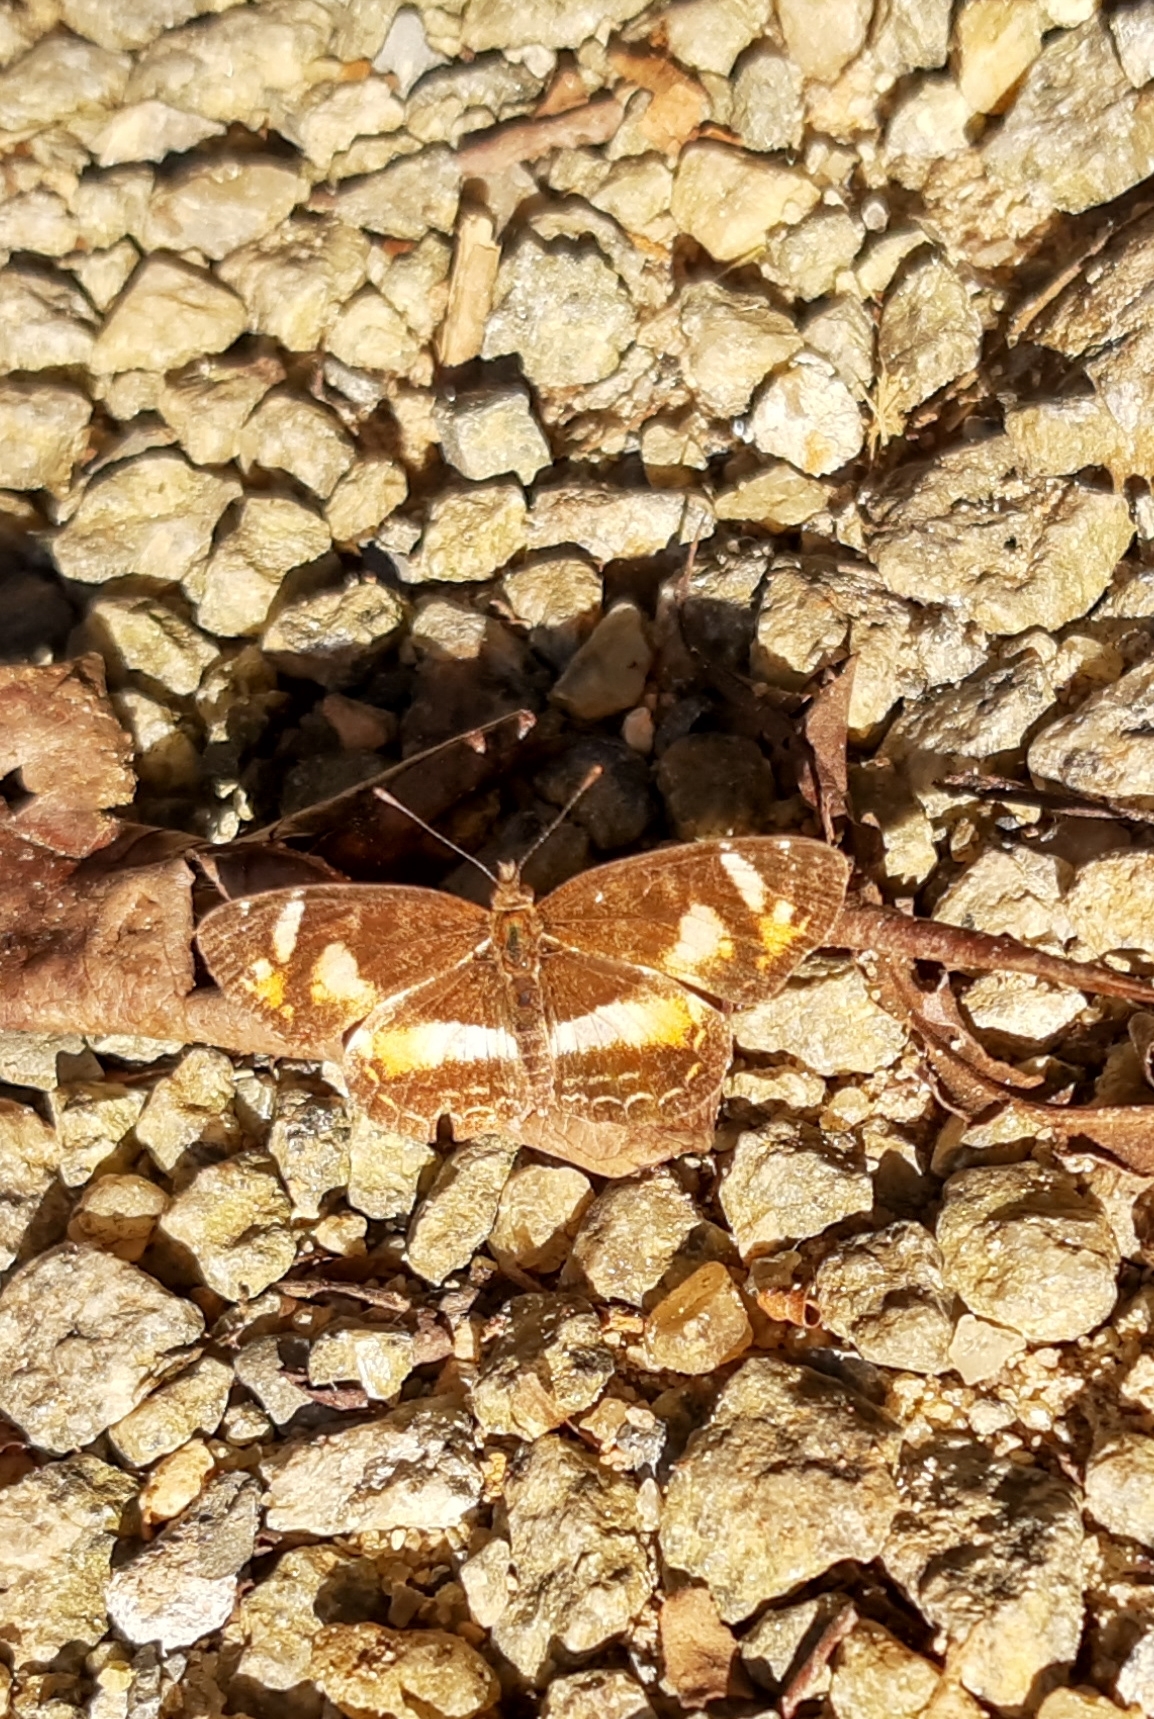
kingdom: Animalia
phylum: Arthropoda
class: Insecta
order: Lepidoptera
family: Nymphalidae
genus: Telenassa
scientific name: Telenassa teletusa
